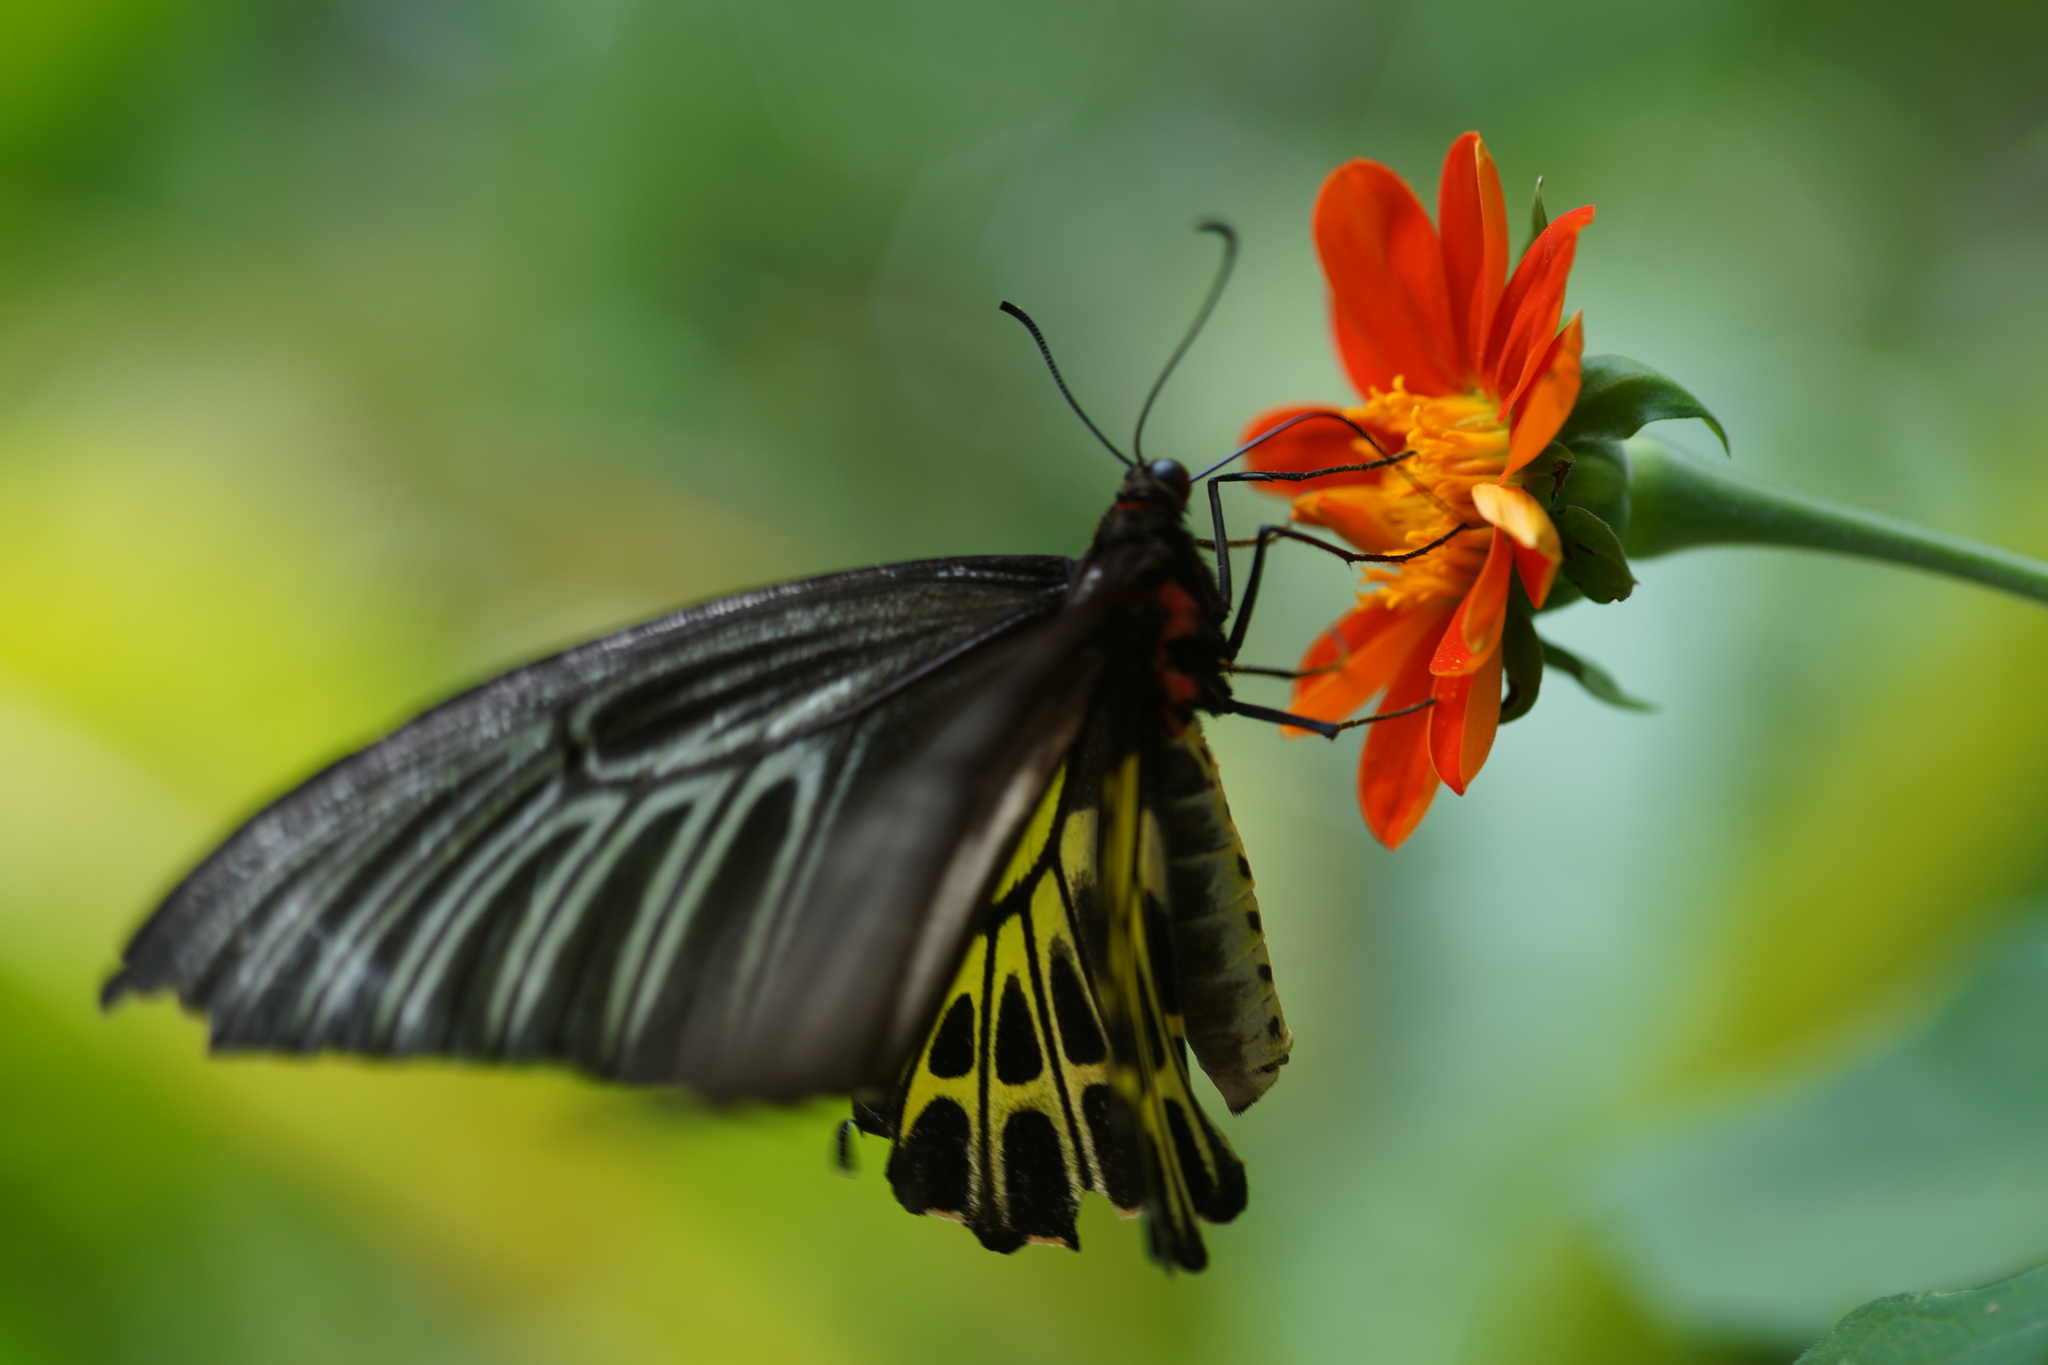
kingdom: Animalia
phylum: Arthropoda
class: Insecta
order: Lepidoptera
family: Papilionidae
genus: Troides
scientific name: Troides aeacus
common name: Golden birdwing
